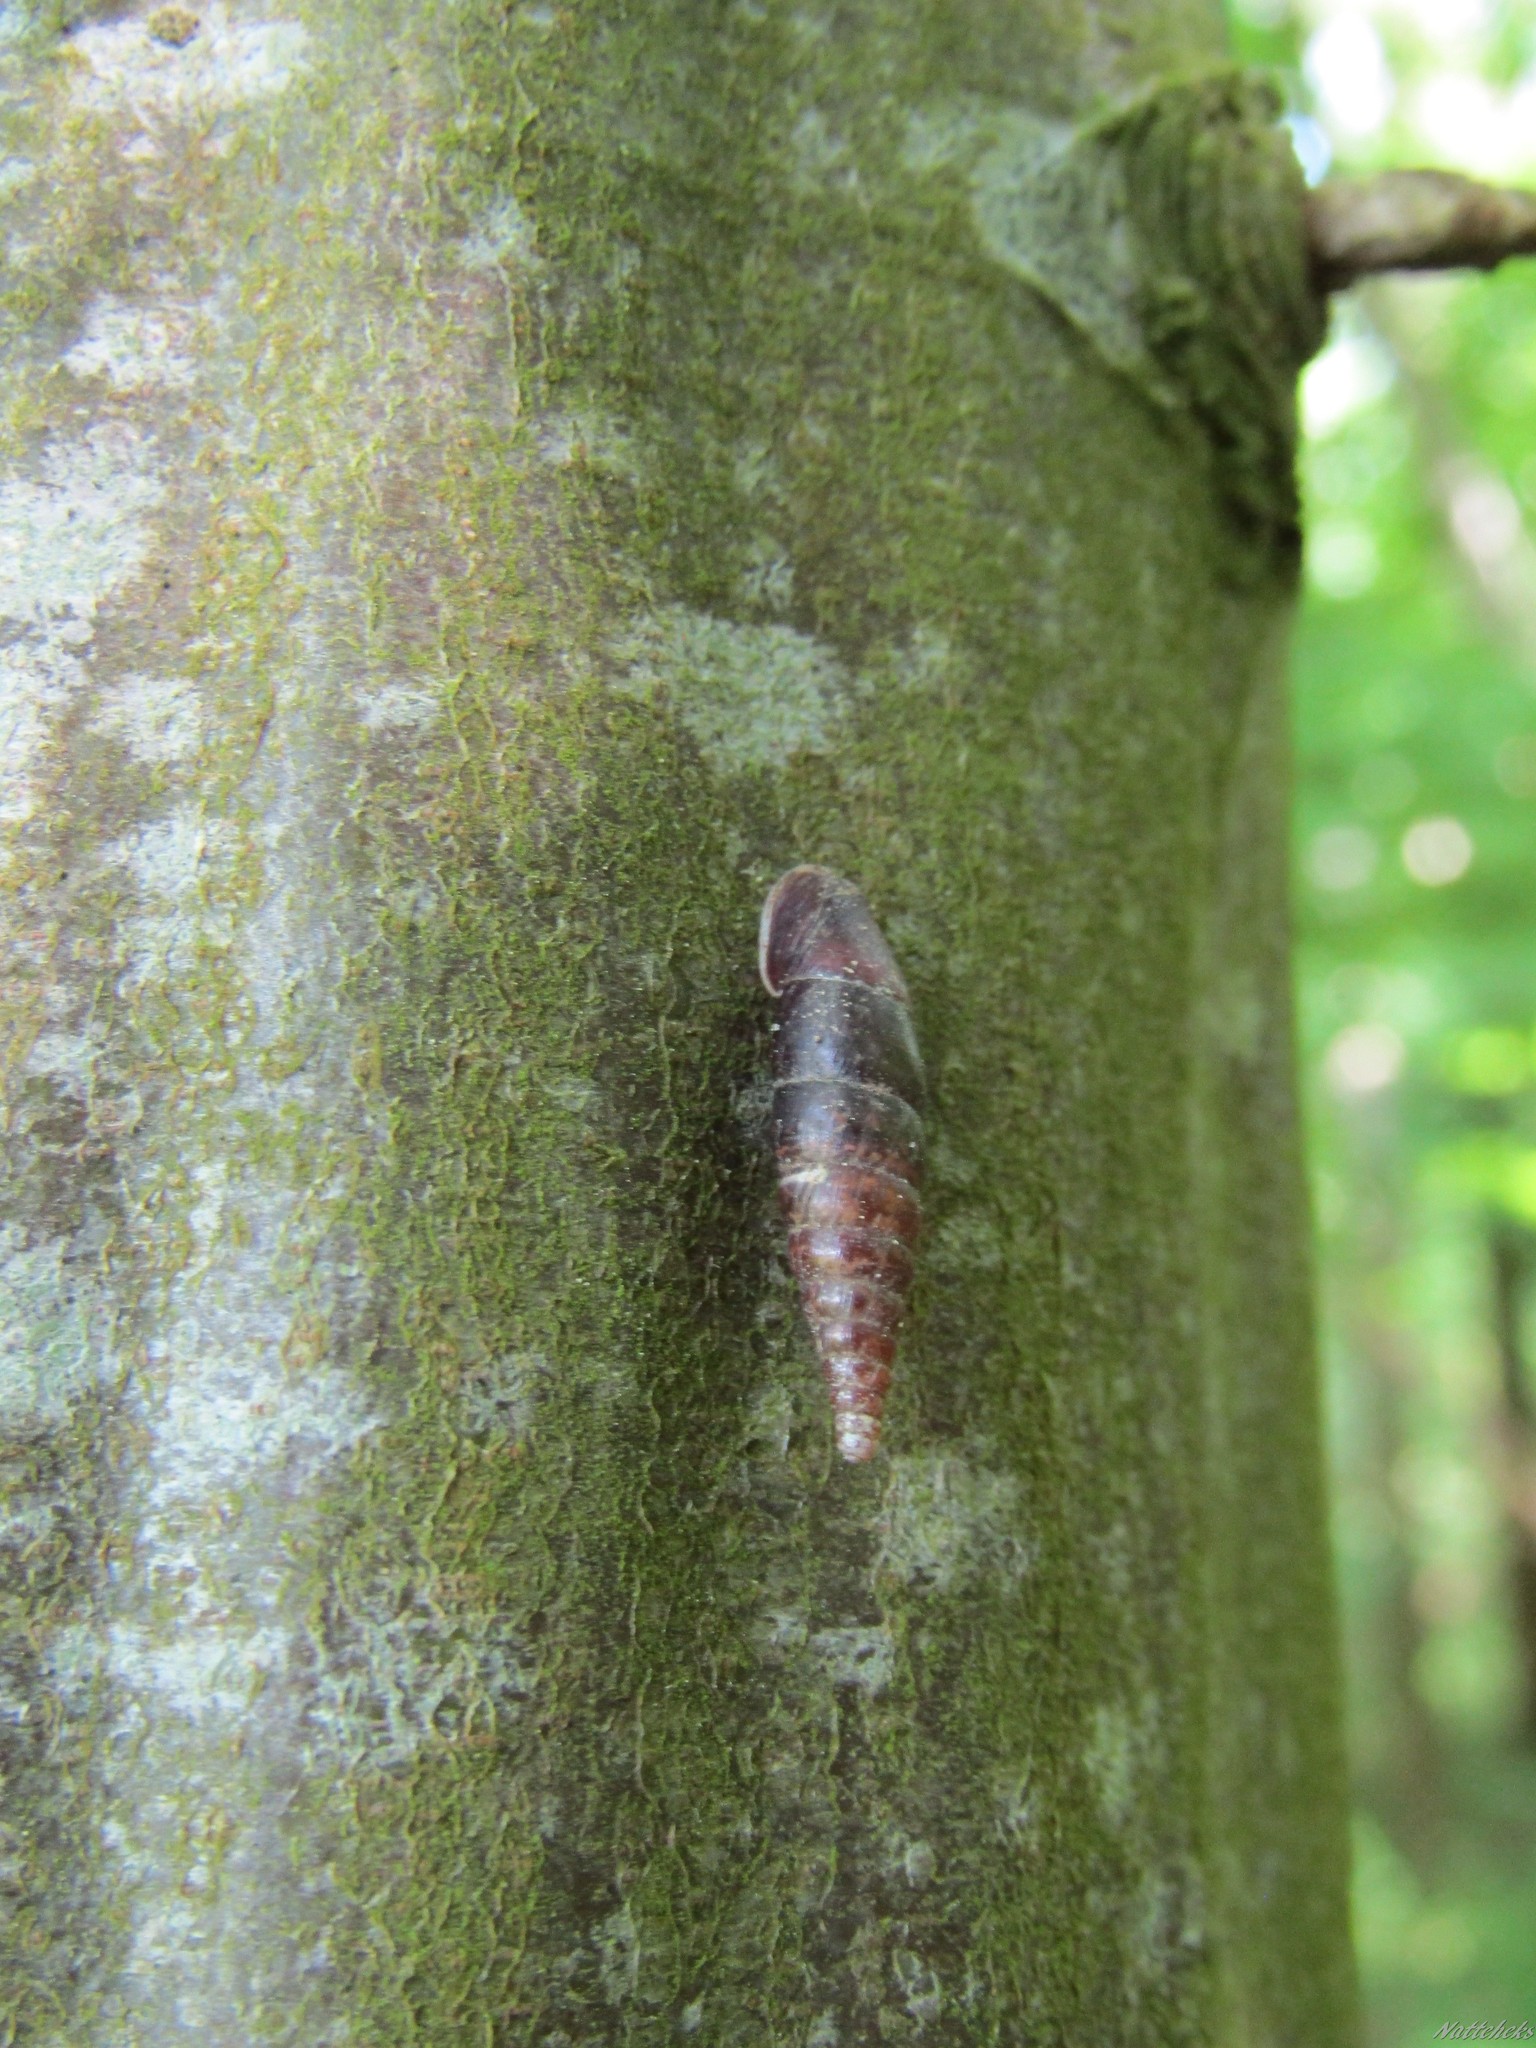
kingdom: Animalia
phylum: Mollusca
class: Gastropoda
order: Stylommatophora
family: Clausiliidae
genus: Cochlodina
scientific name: Cochlodina laminata
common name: Plaited door snail
